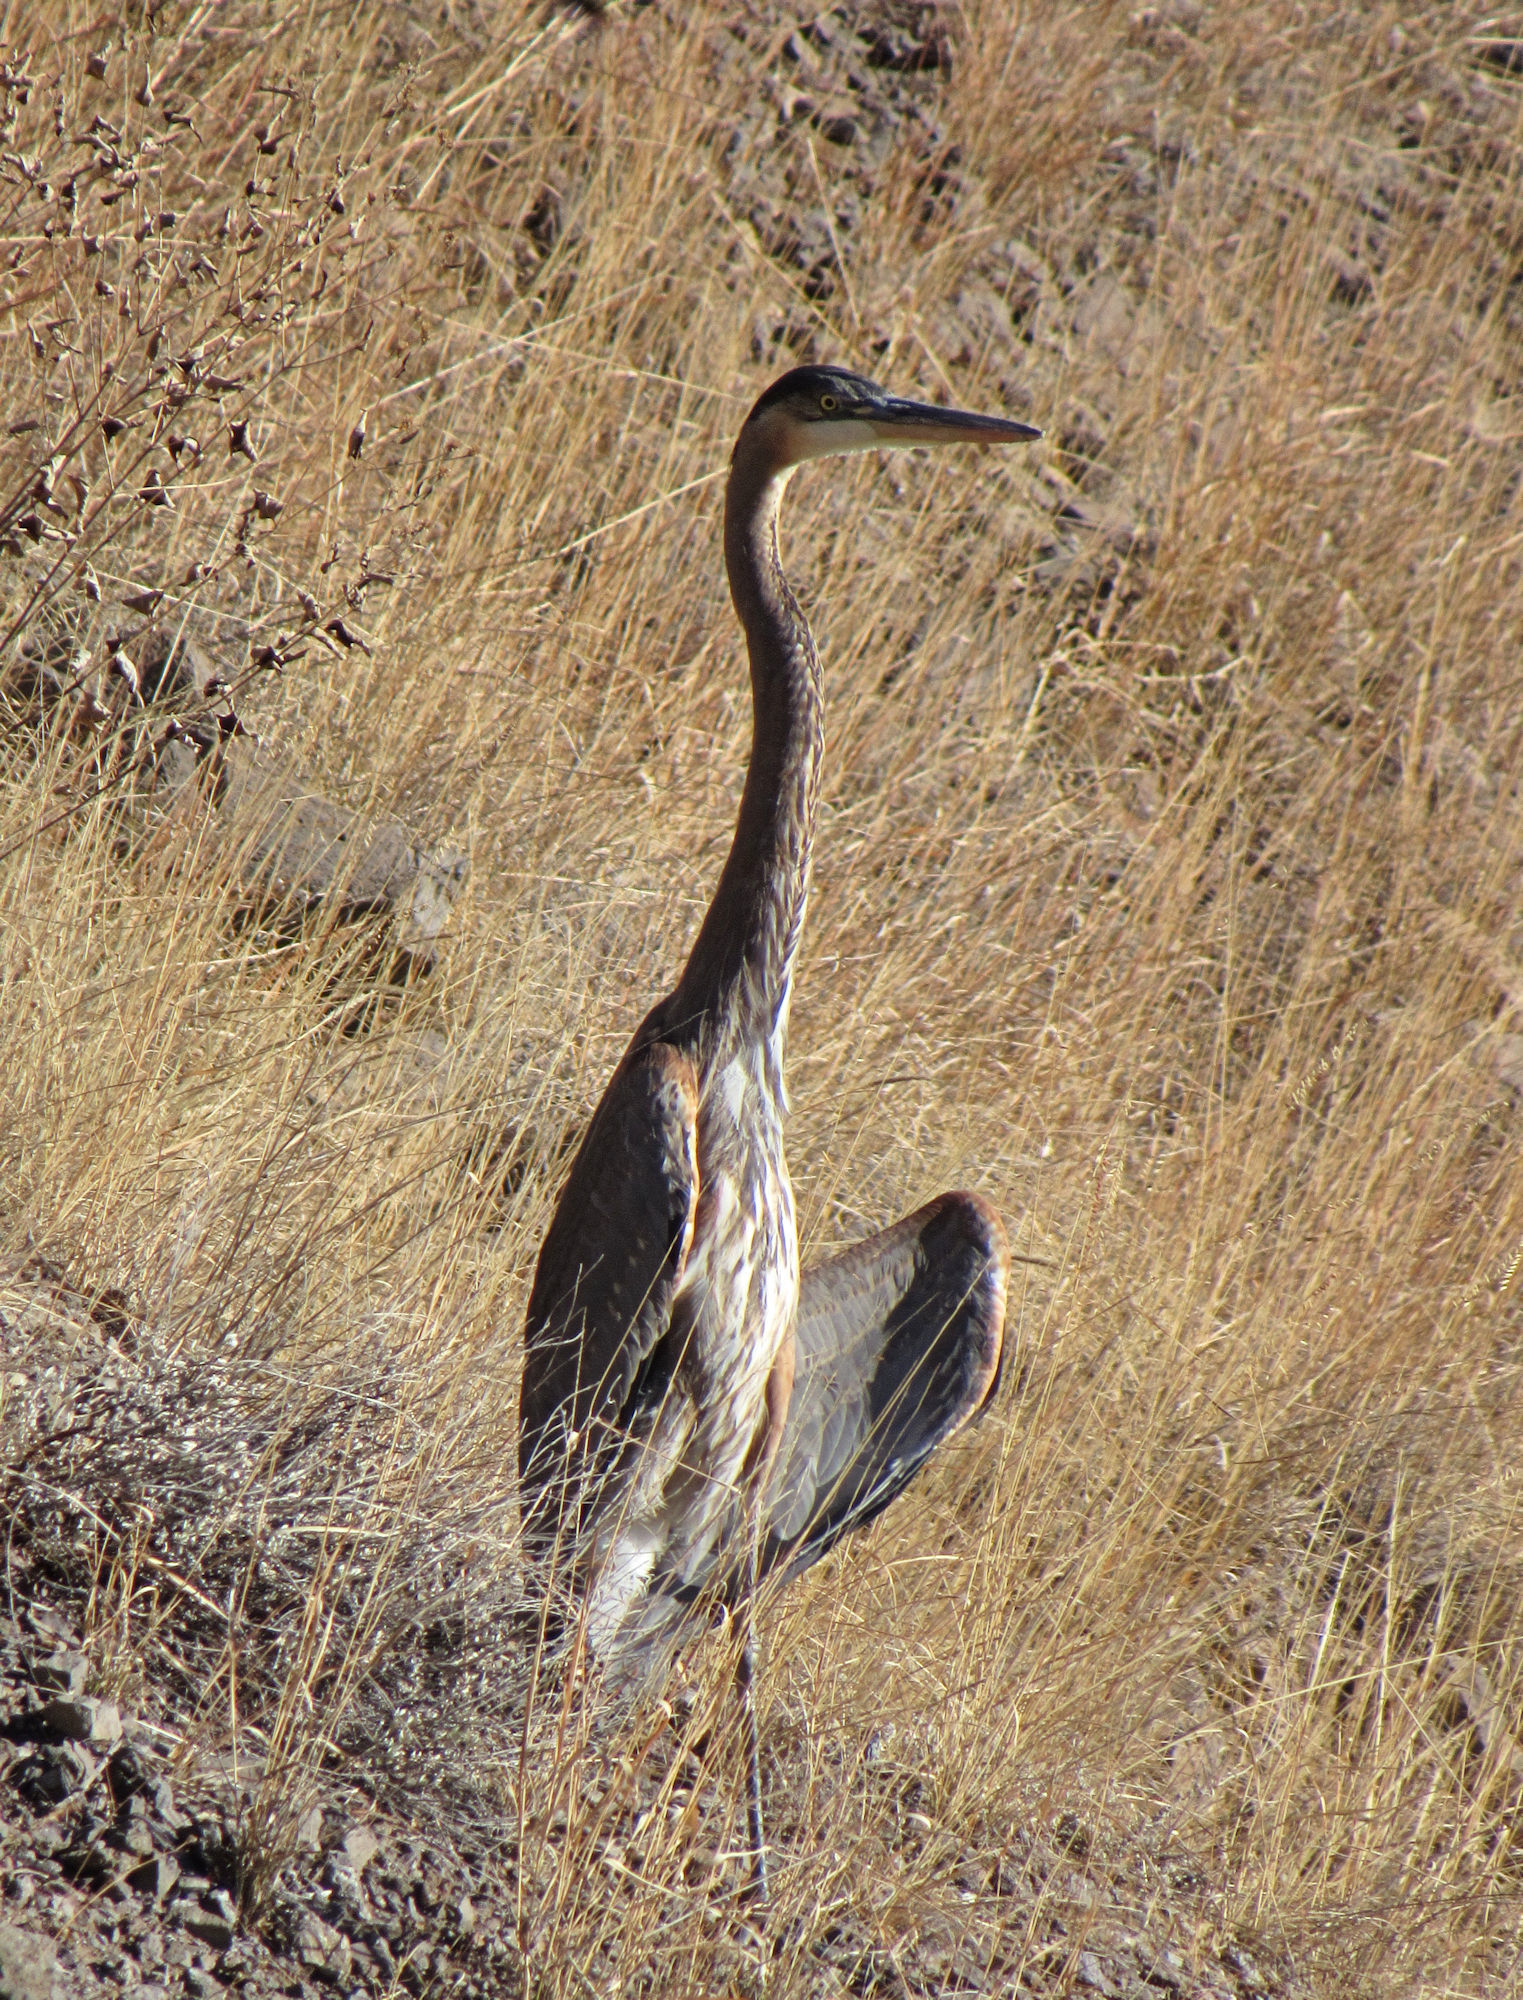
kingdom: Animalia
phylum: Chordata
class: Aves
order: Pelecaniformes
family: Ardeidae
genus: Ardea
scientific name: Ardea herodias
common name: Great blue heron
